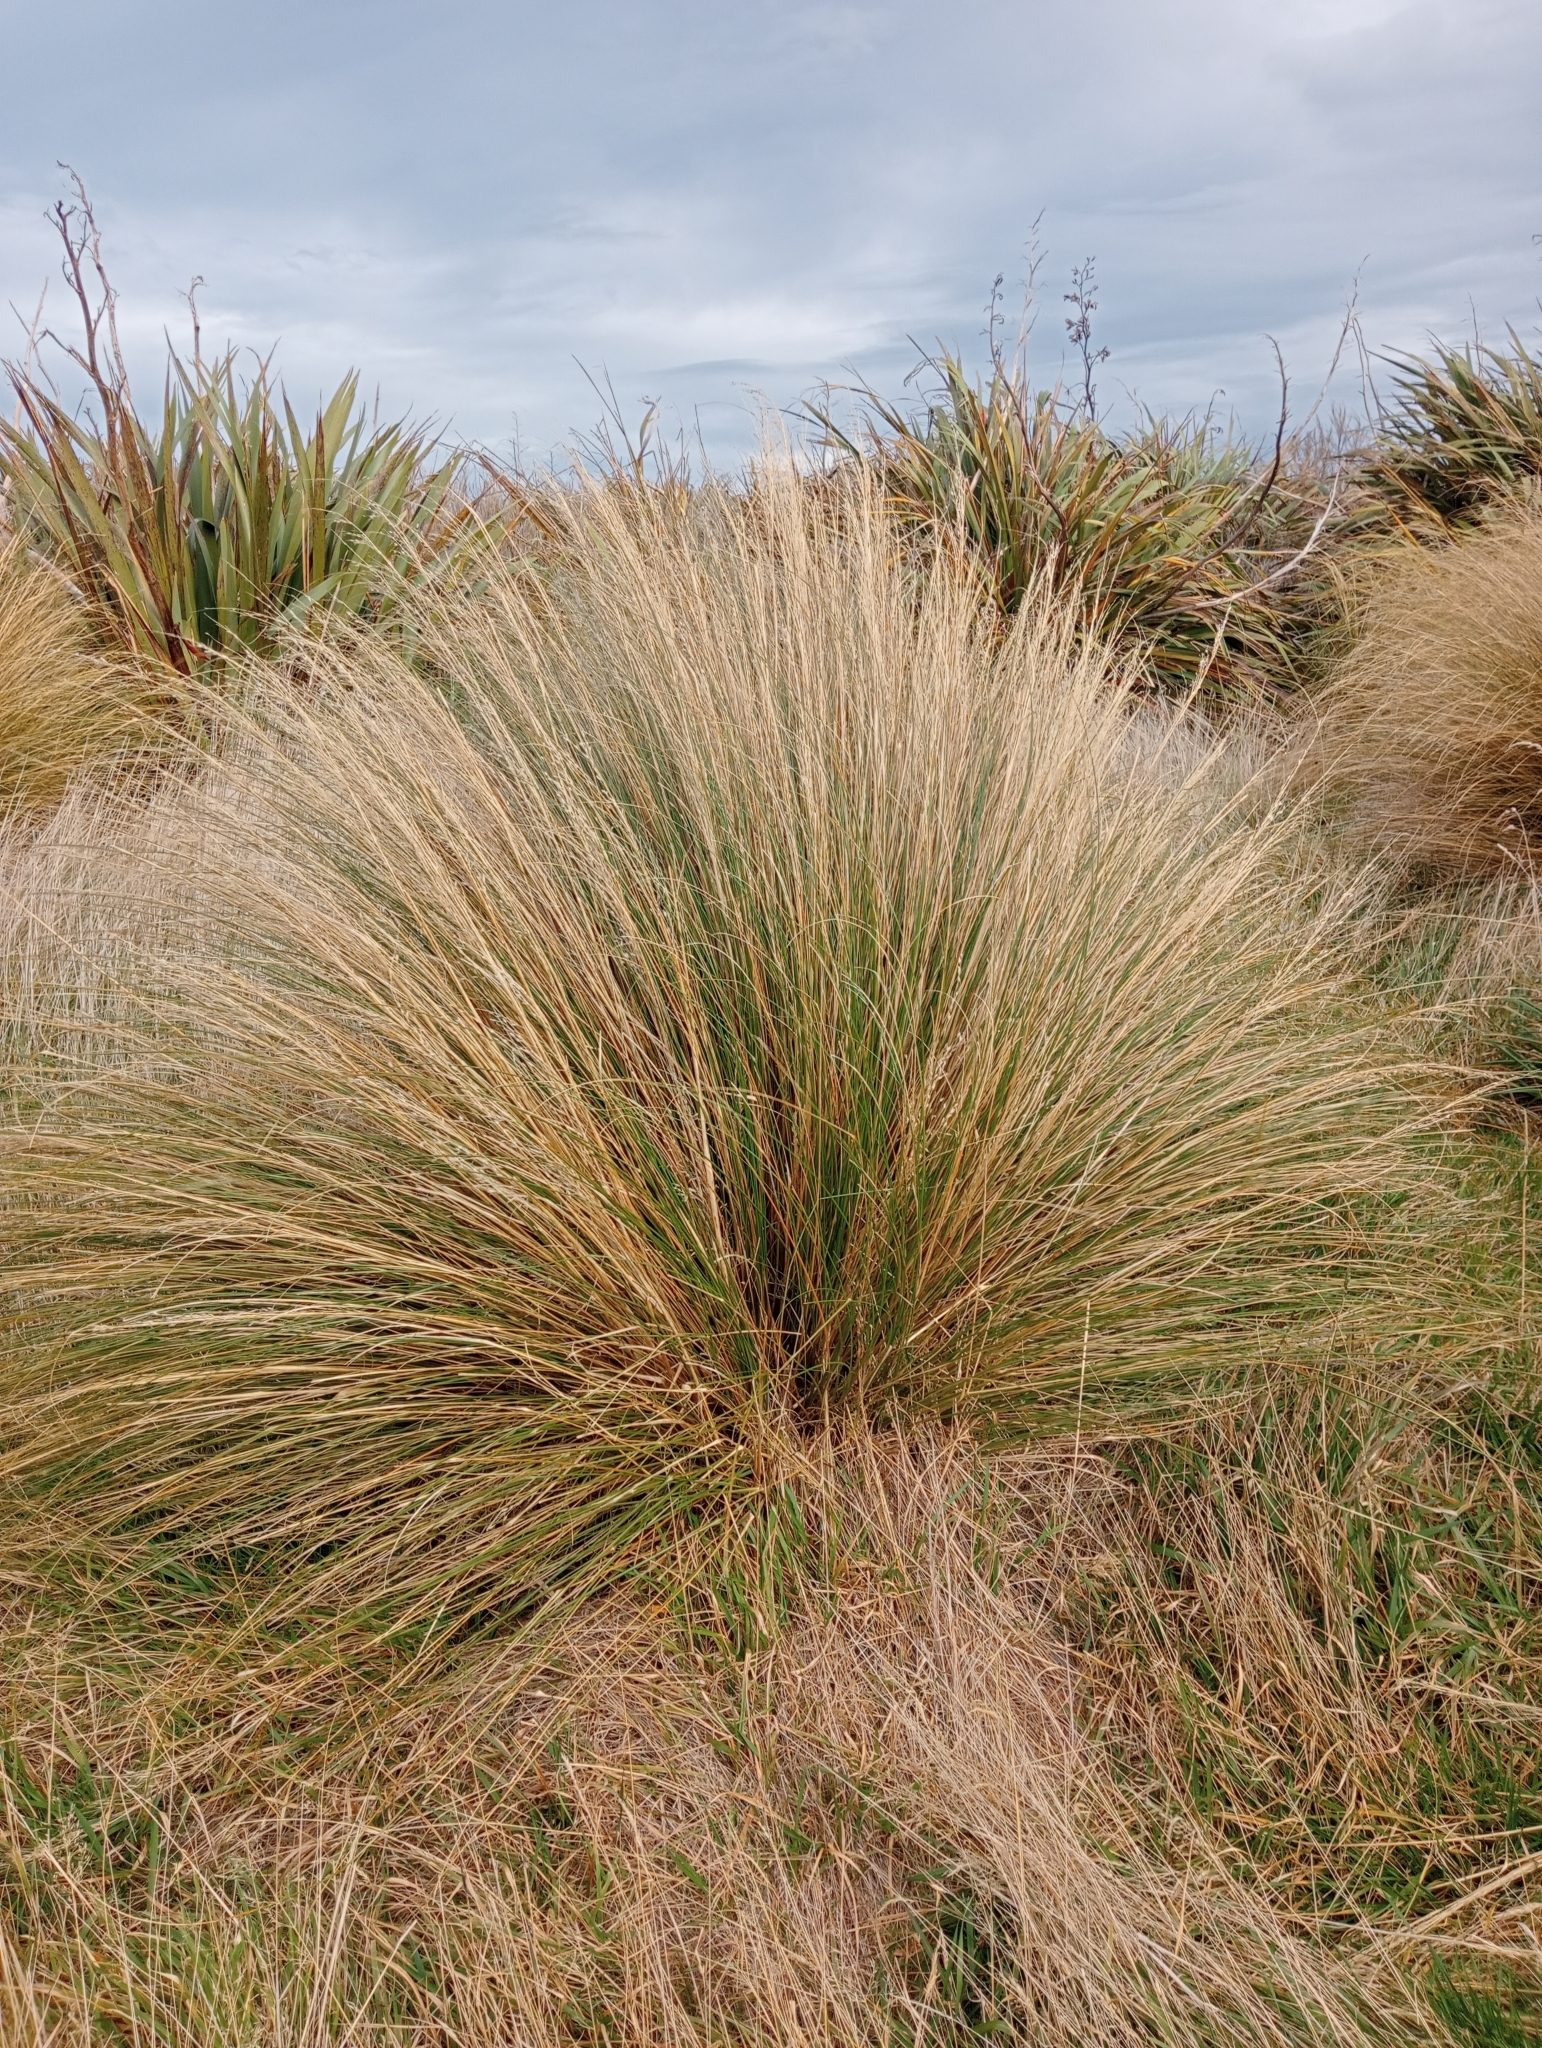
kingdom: Plantae
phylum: Tracheophyta
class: Liliopsida
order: Poales
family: Poaceae
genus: Chionochloa
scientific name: Chionochloa rigida
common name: Narrow leaved snow tussock
